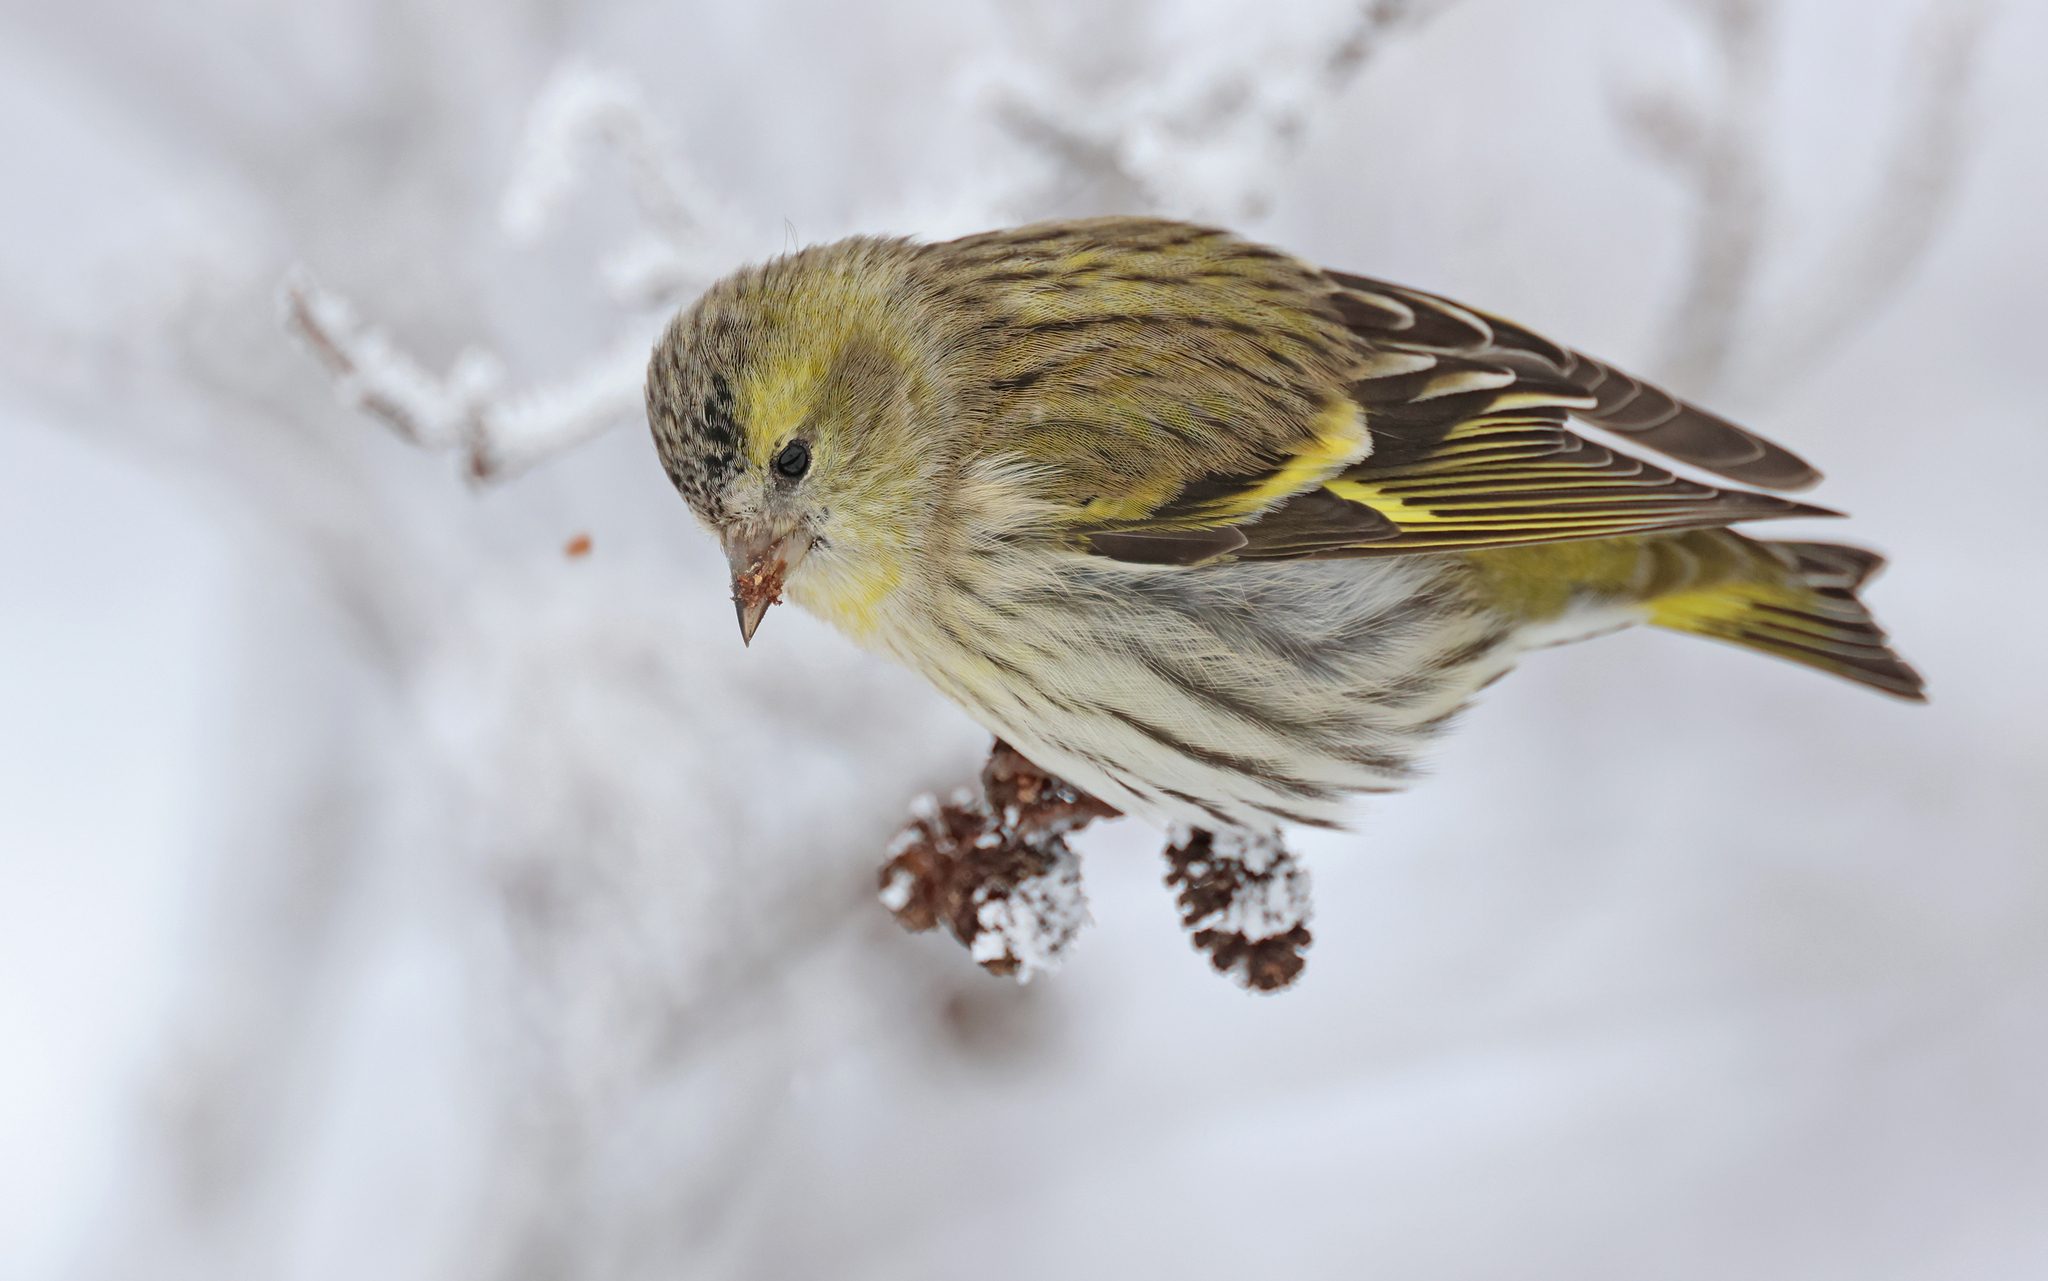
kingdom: Animalia
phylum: Chordata
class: Aves
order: Passeriformes
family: Fringillidae
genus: Spinus
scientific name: Spinus spinus
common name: Eurasian siskin
